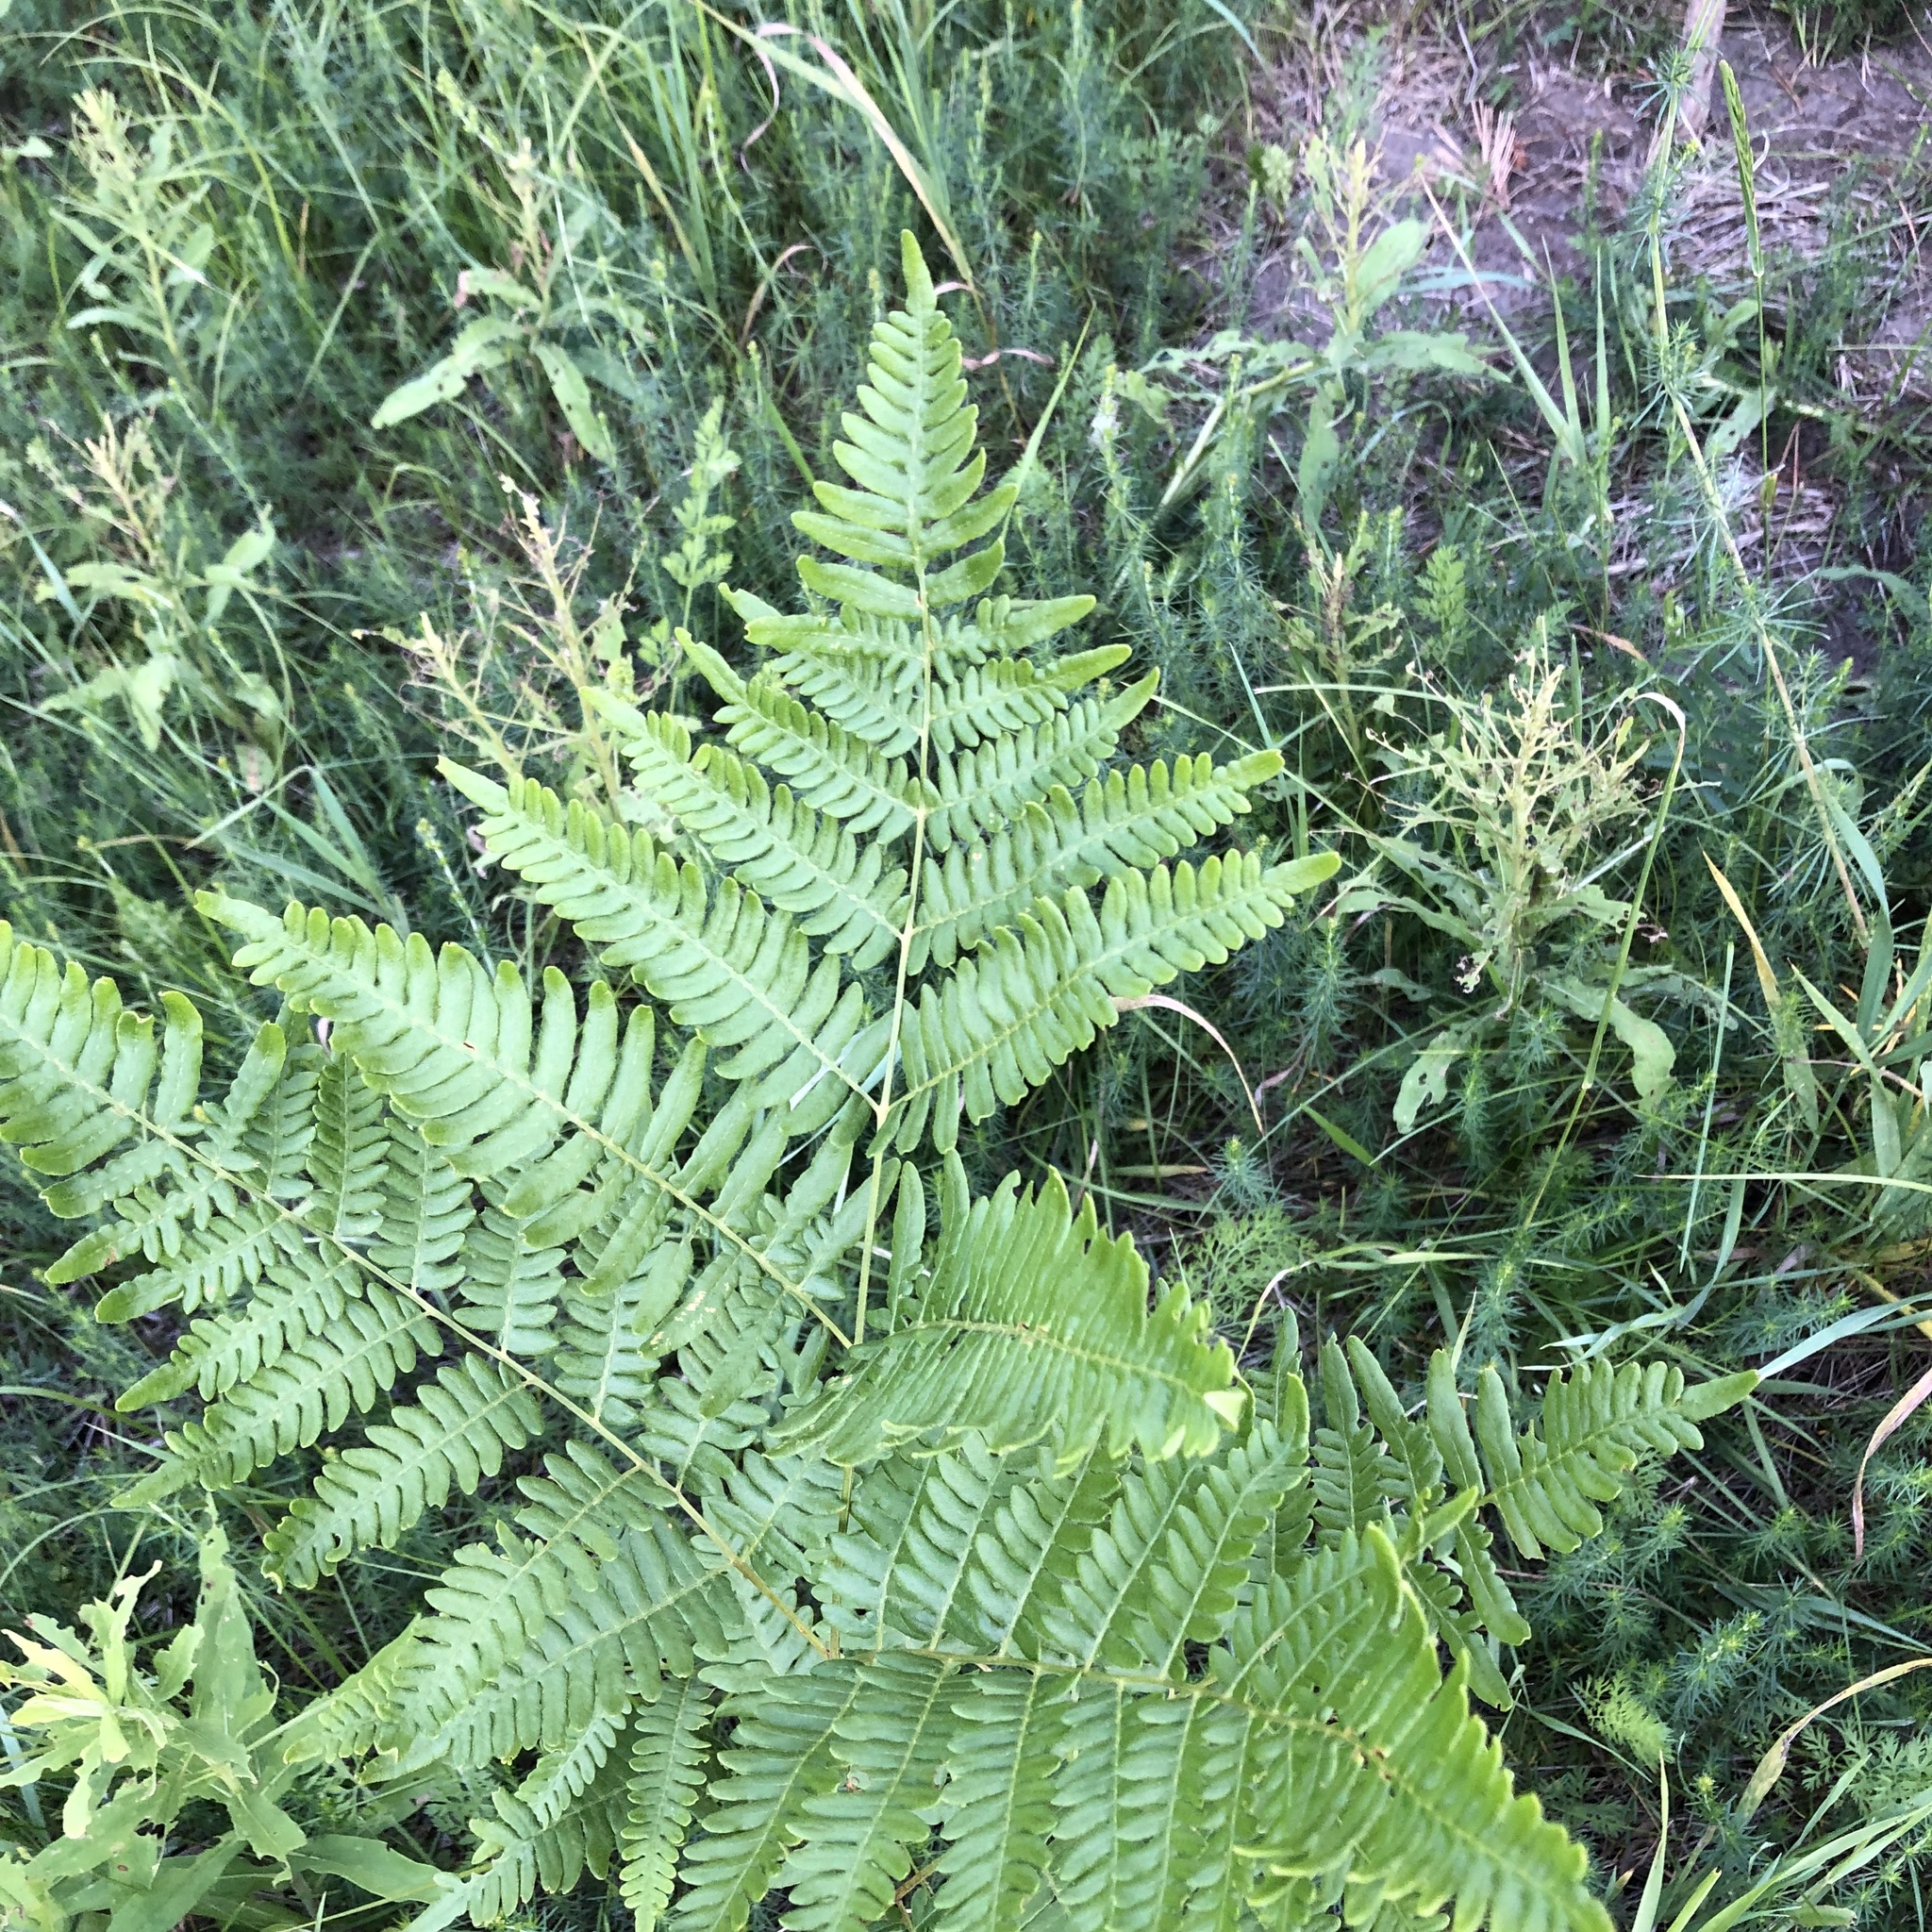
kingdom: Plantae
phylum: Tracheophyta
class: Polypodiopsida
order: Polypodiales
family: Dennstaedtiaceae
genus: Pteridium
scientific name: Pteridium aquilinum
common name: Bracken
